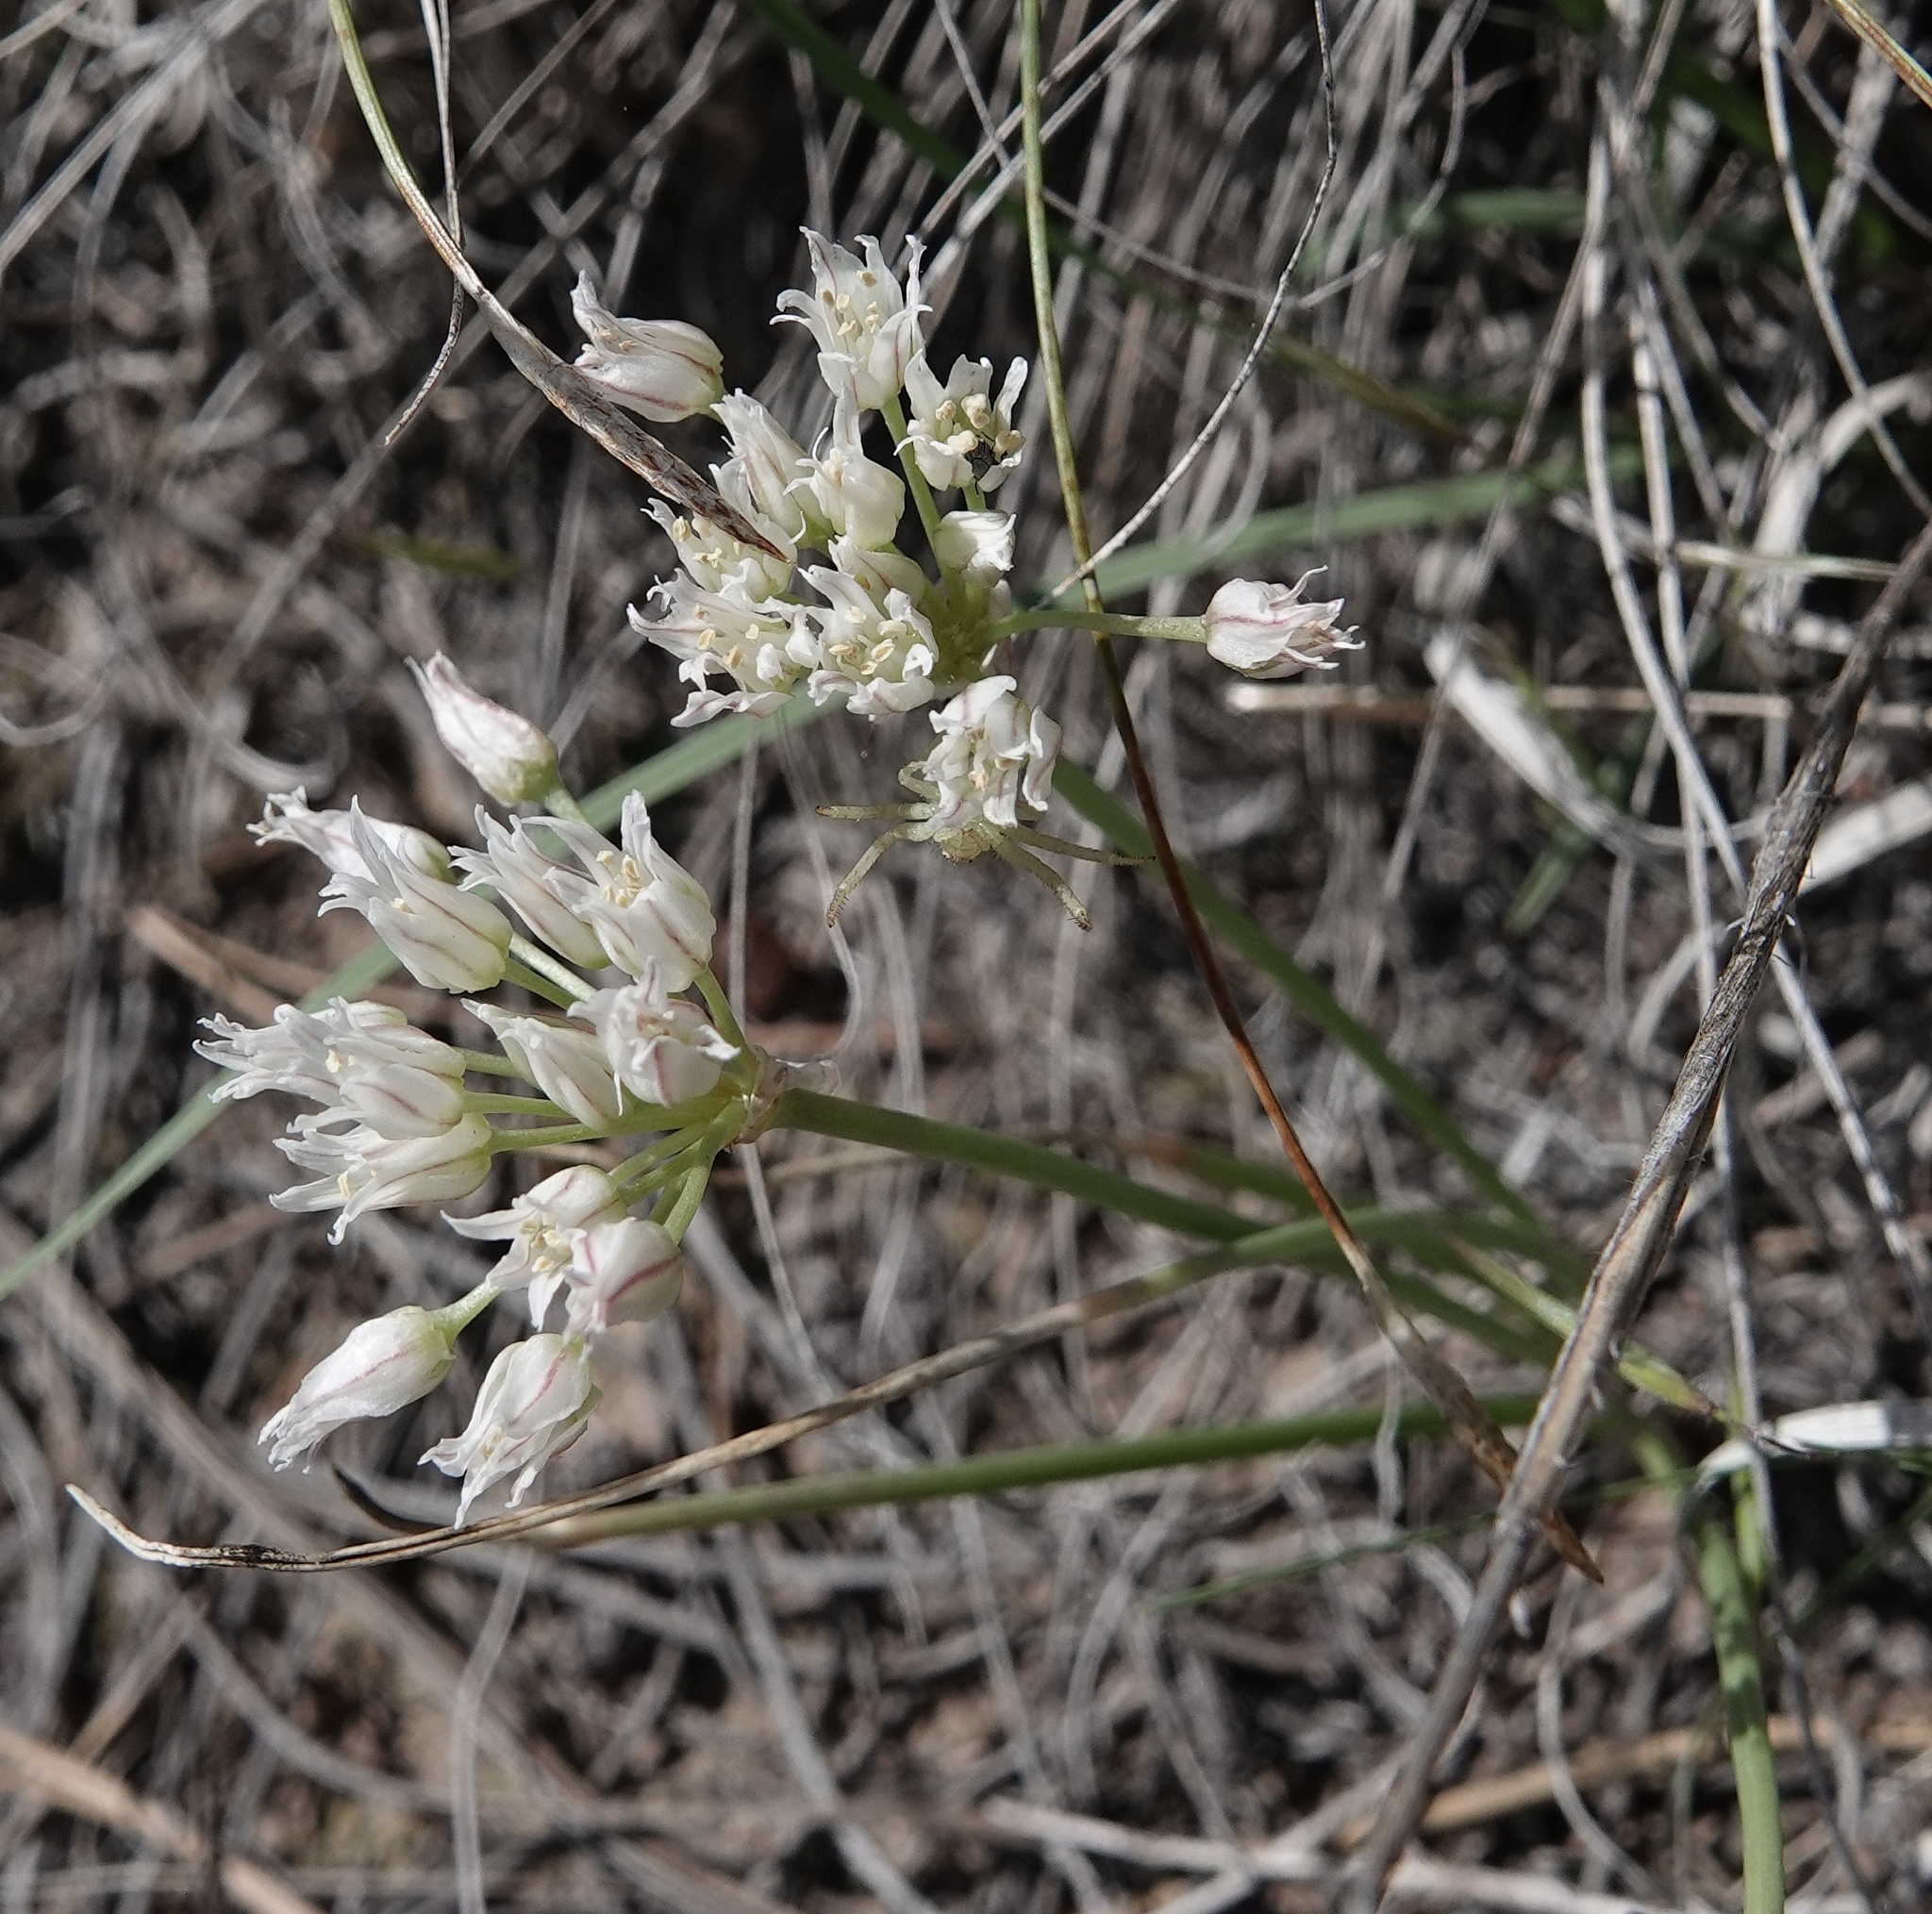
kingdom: Plantae
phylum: Tracheophyta
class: Liliopsida
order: Asparagales
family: Amaryllidaceae
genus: Allium
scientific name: Allium textile
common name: Prairie onion
